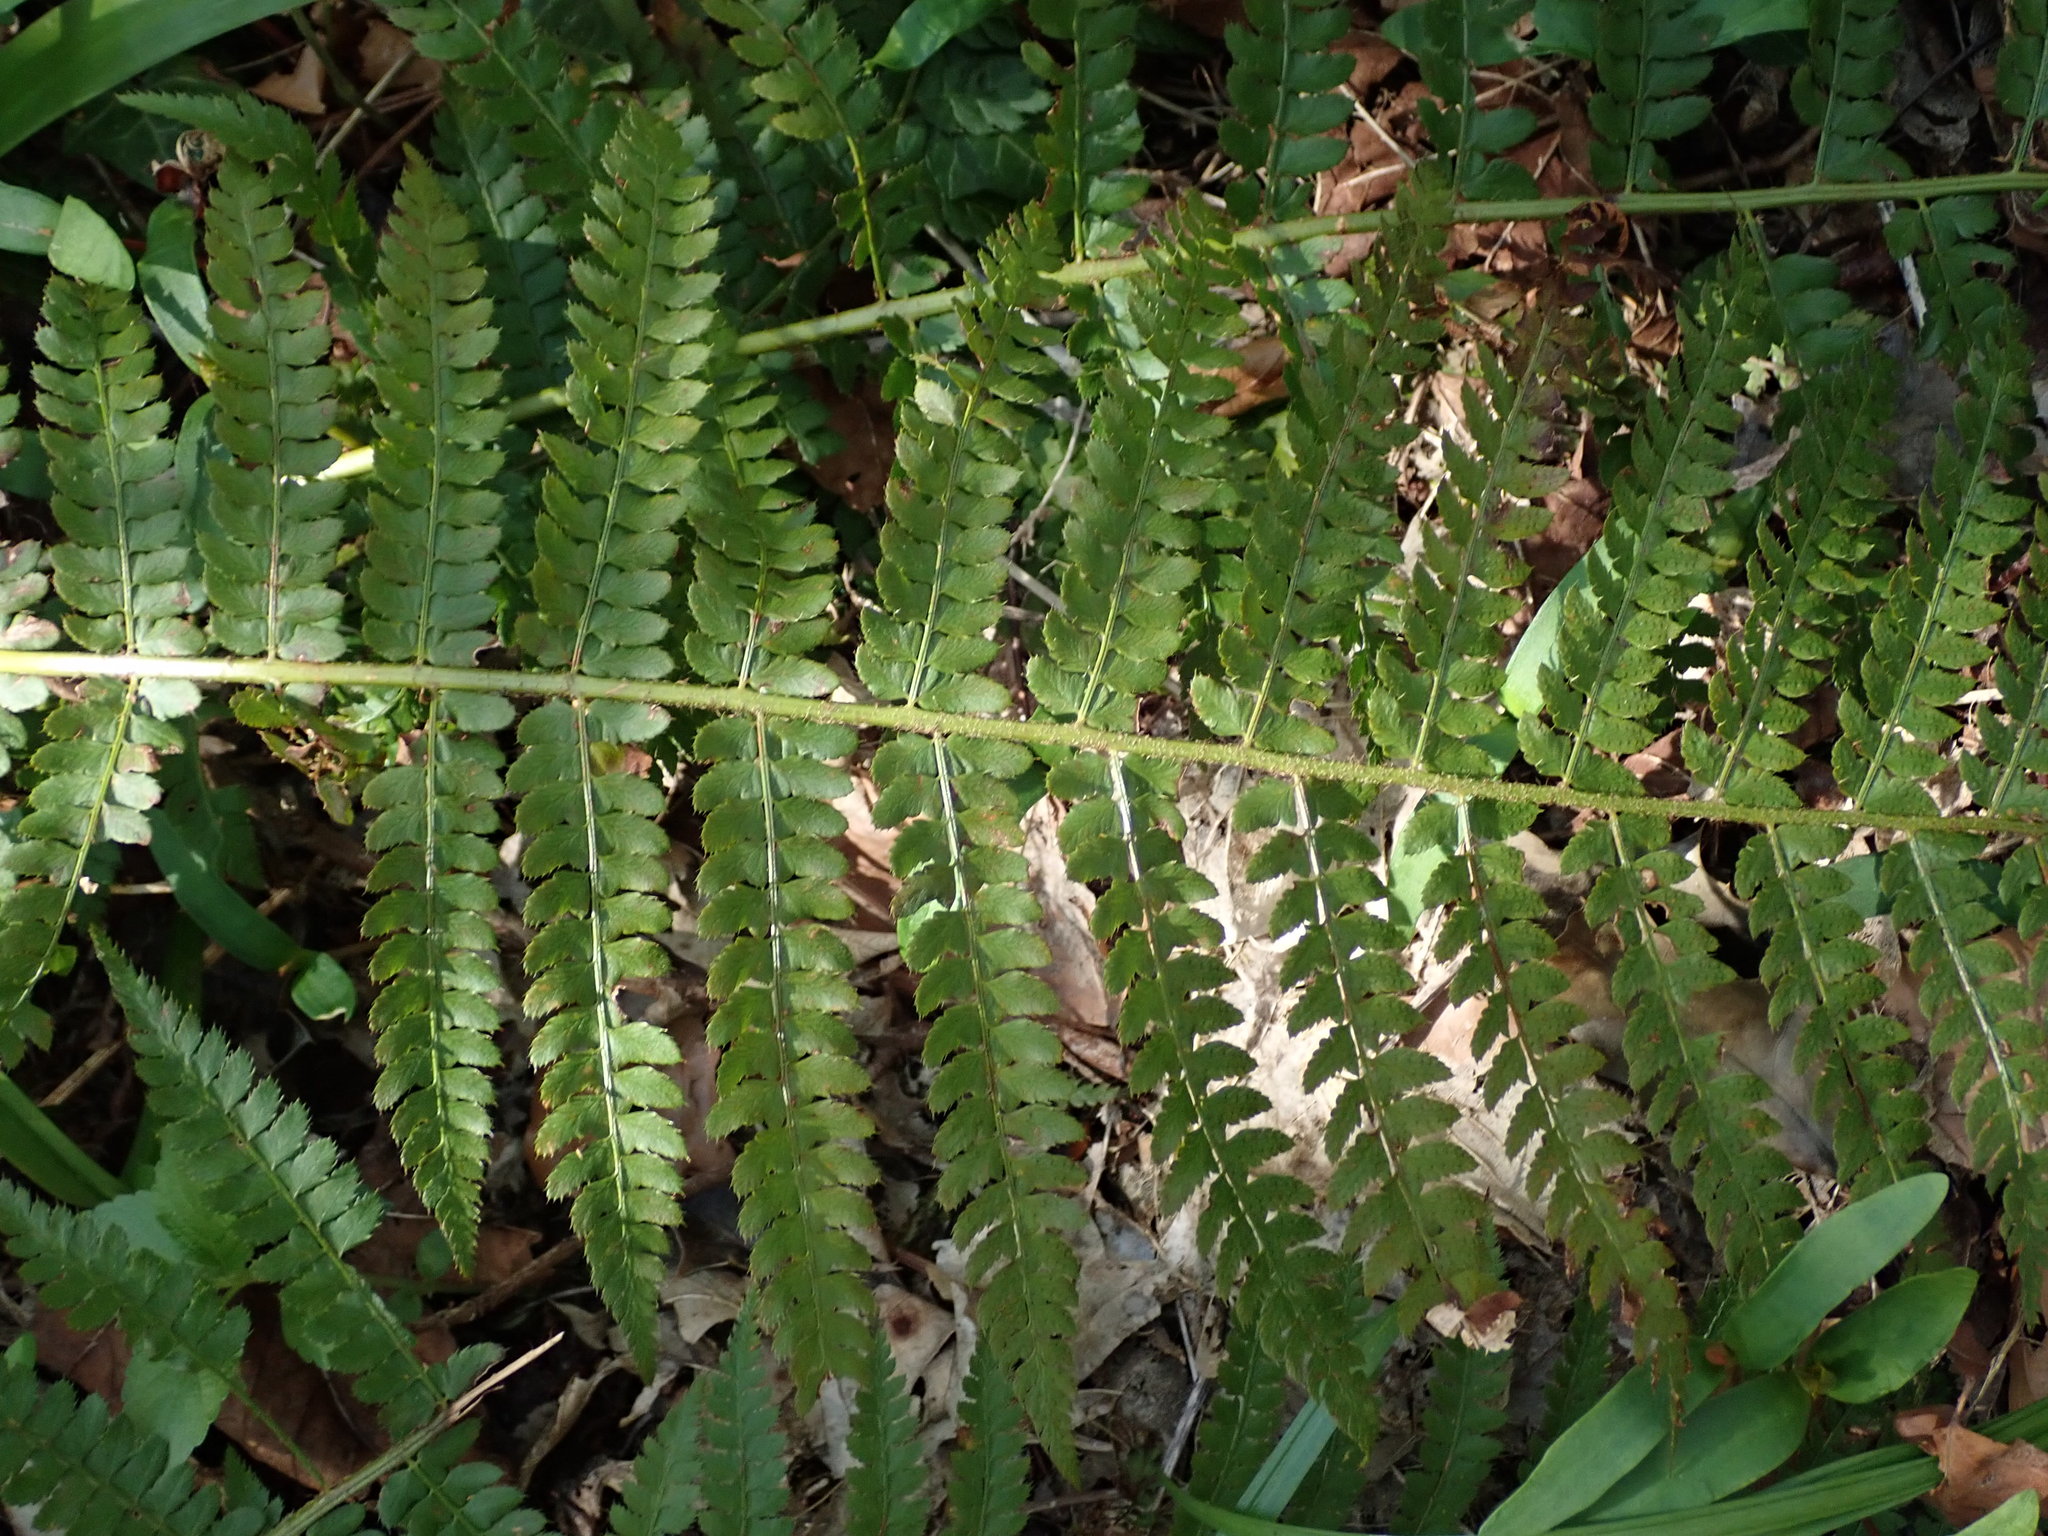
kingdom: Plantae
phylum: Tracheophyta
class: Polypodiopsida
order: Polypodiales
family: Dryopteridaceae
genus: Polystichum
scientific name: Polystichum setiferum
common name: Soft shield-fern
